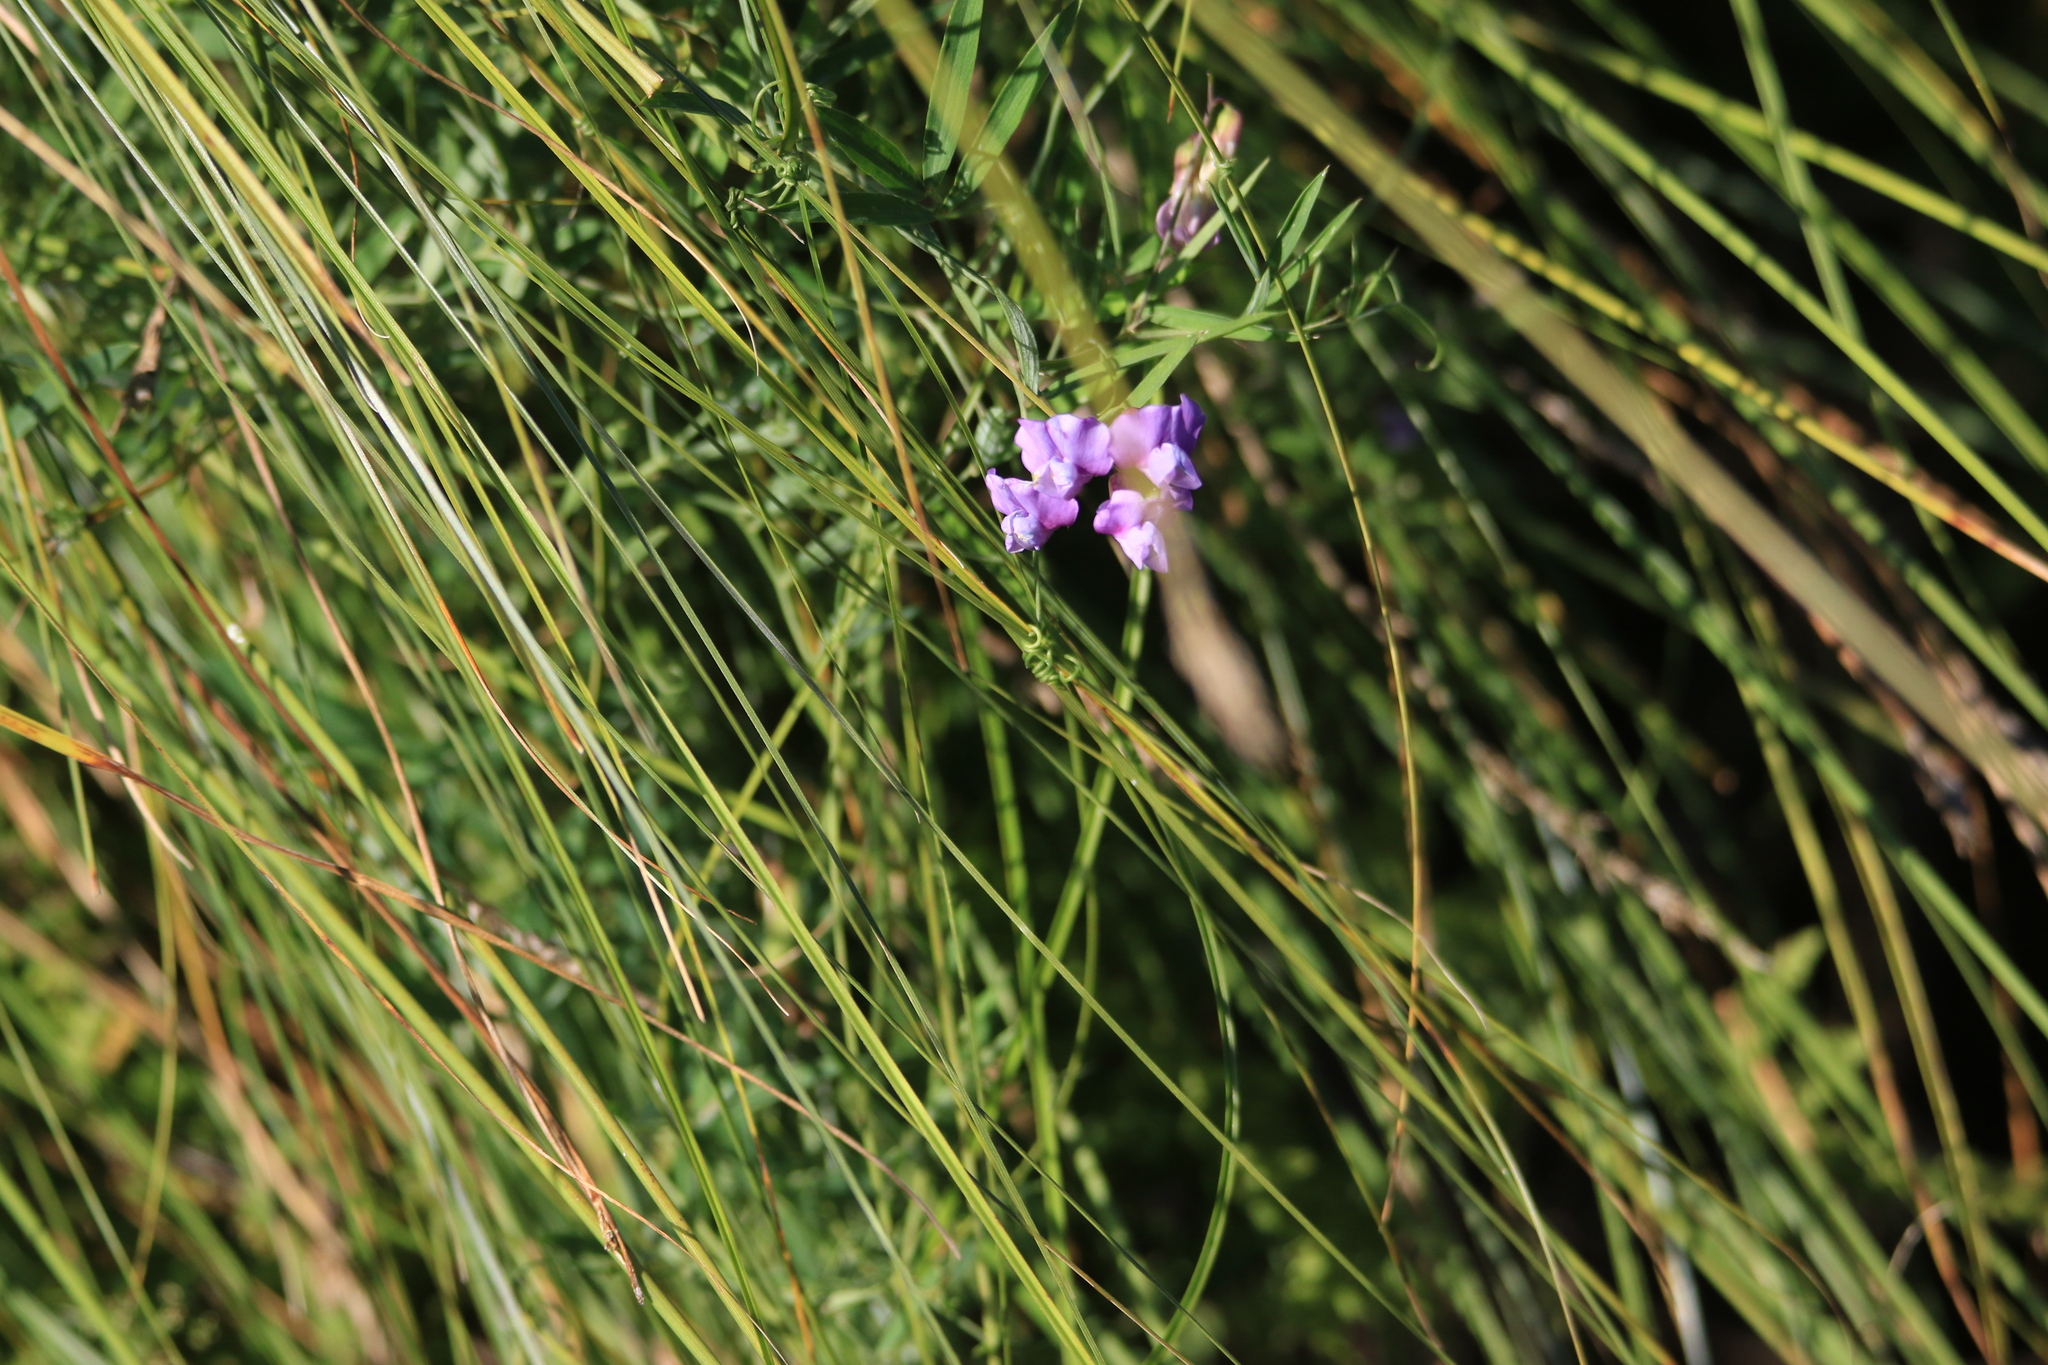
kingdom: Plantae
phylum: Tracheophyta
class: Magnoliopsida
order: Fabales
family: Fabaceae
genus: Lathyrus
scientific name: Lathyrus palustris
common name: Marsh pea
